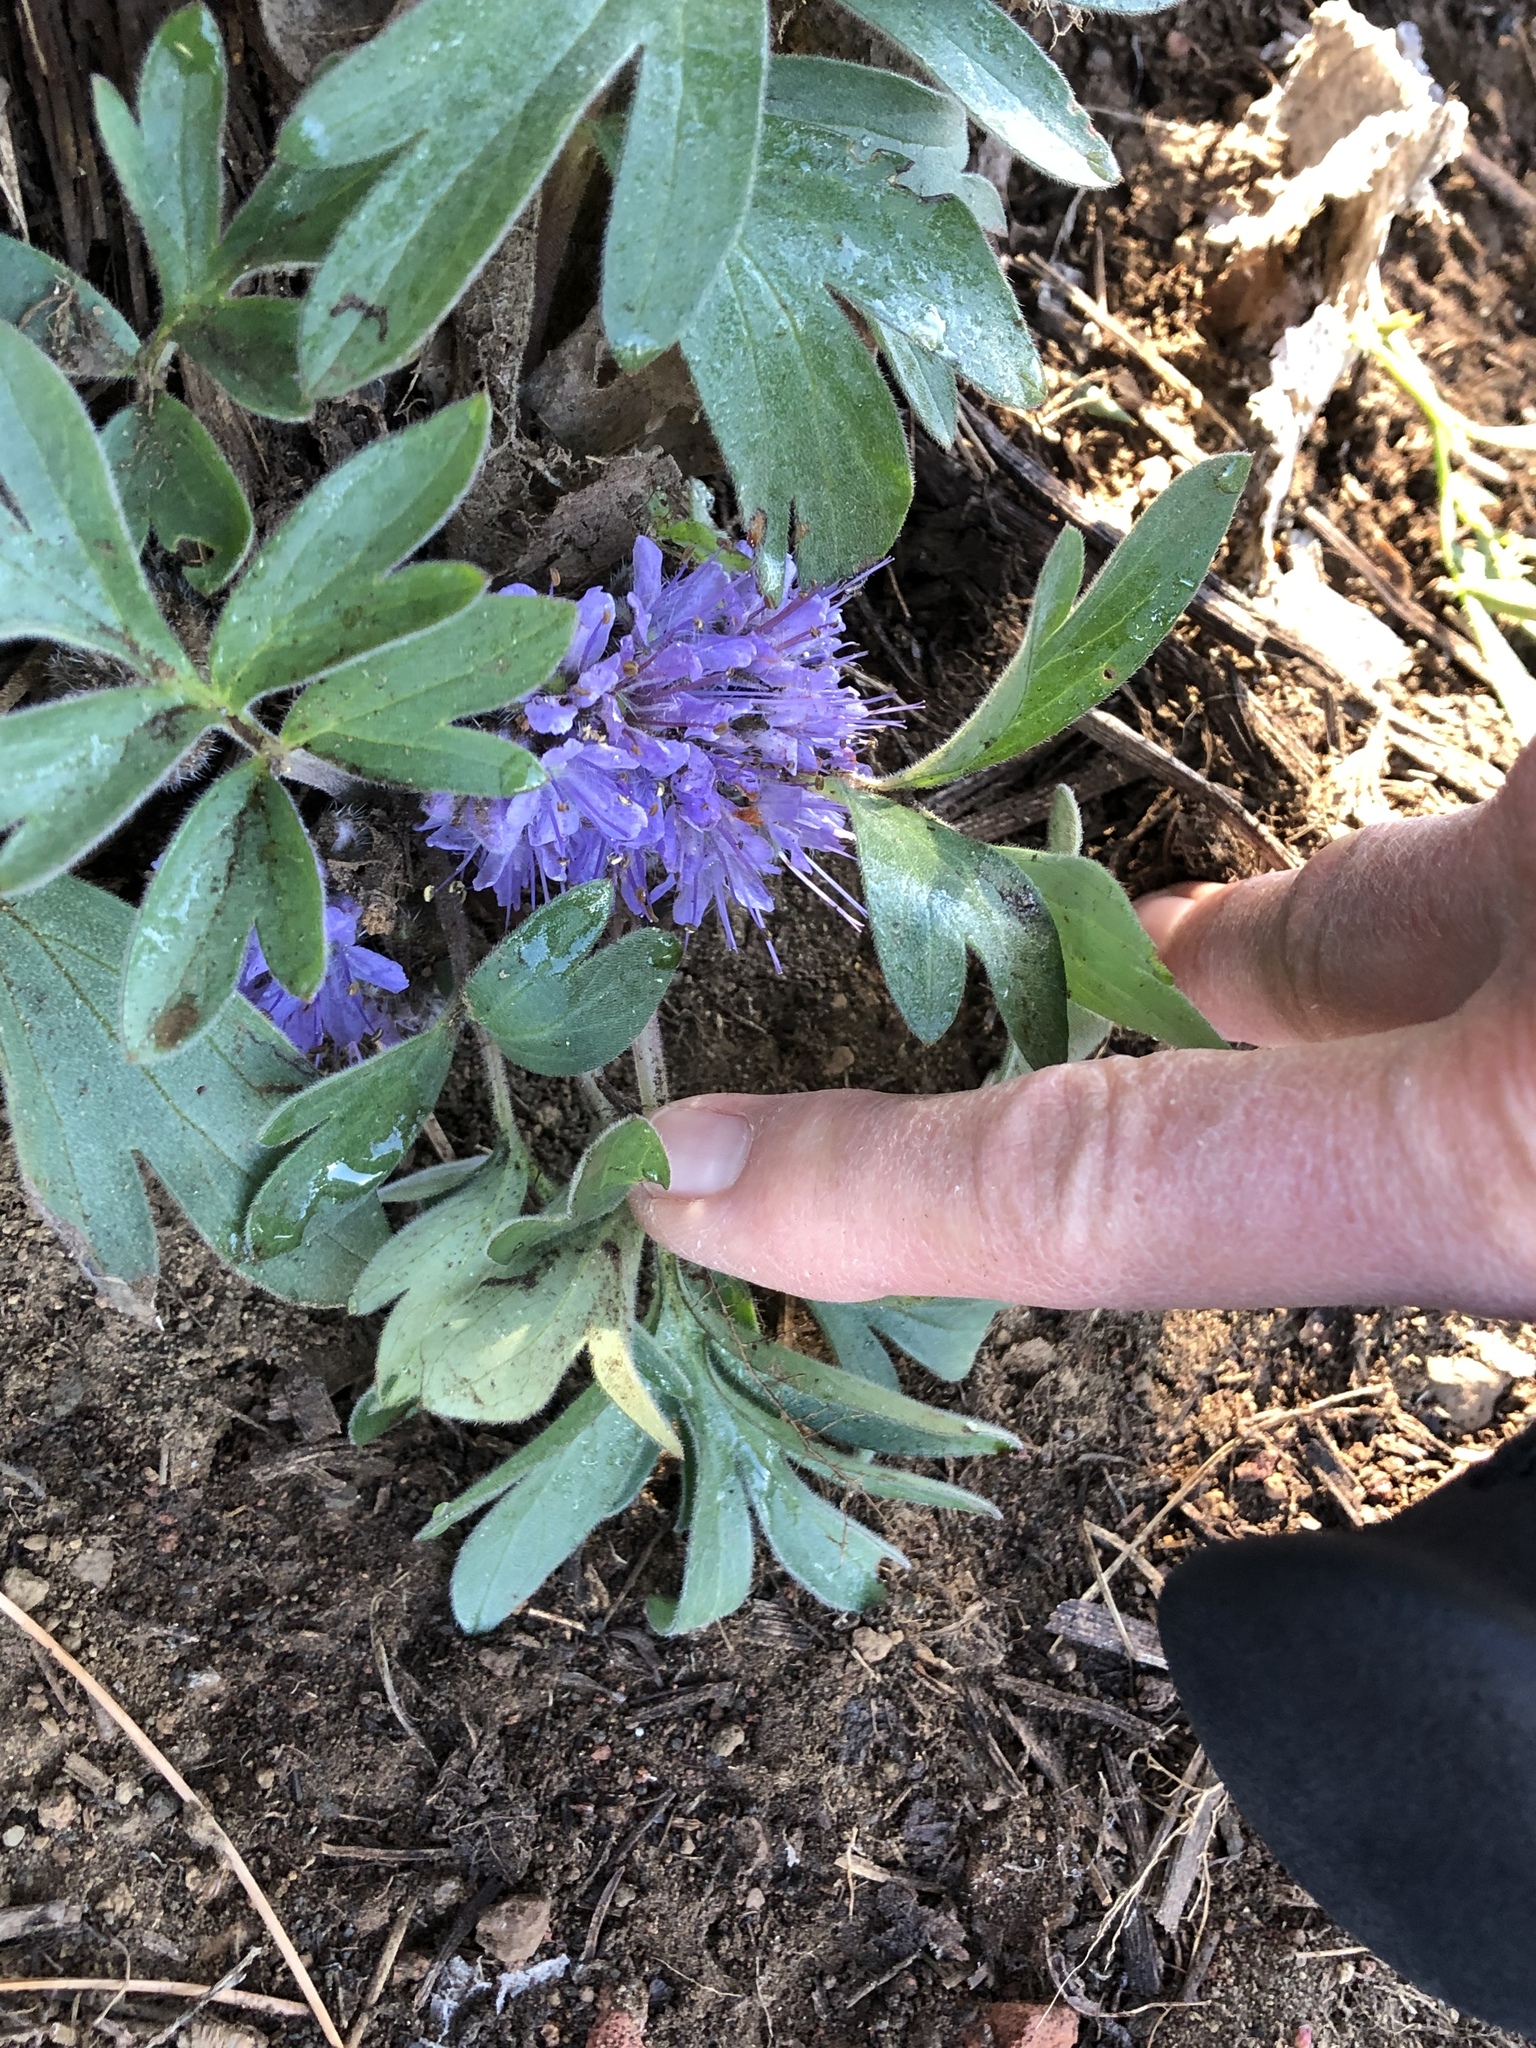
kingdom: Plantae
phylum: Tracheophyta
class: Magnoliopsida
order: Boraginales
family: Hydrophyllaceae
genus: Hydrophyllum
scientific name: Hydrophyllum alpestre
